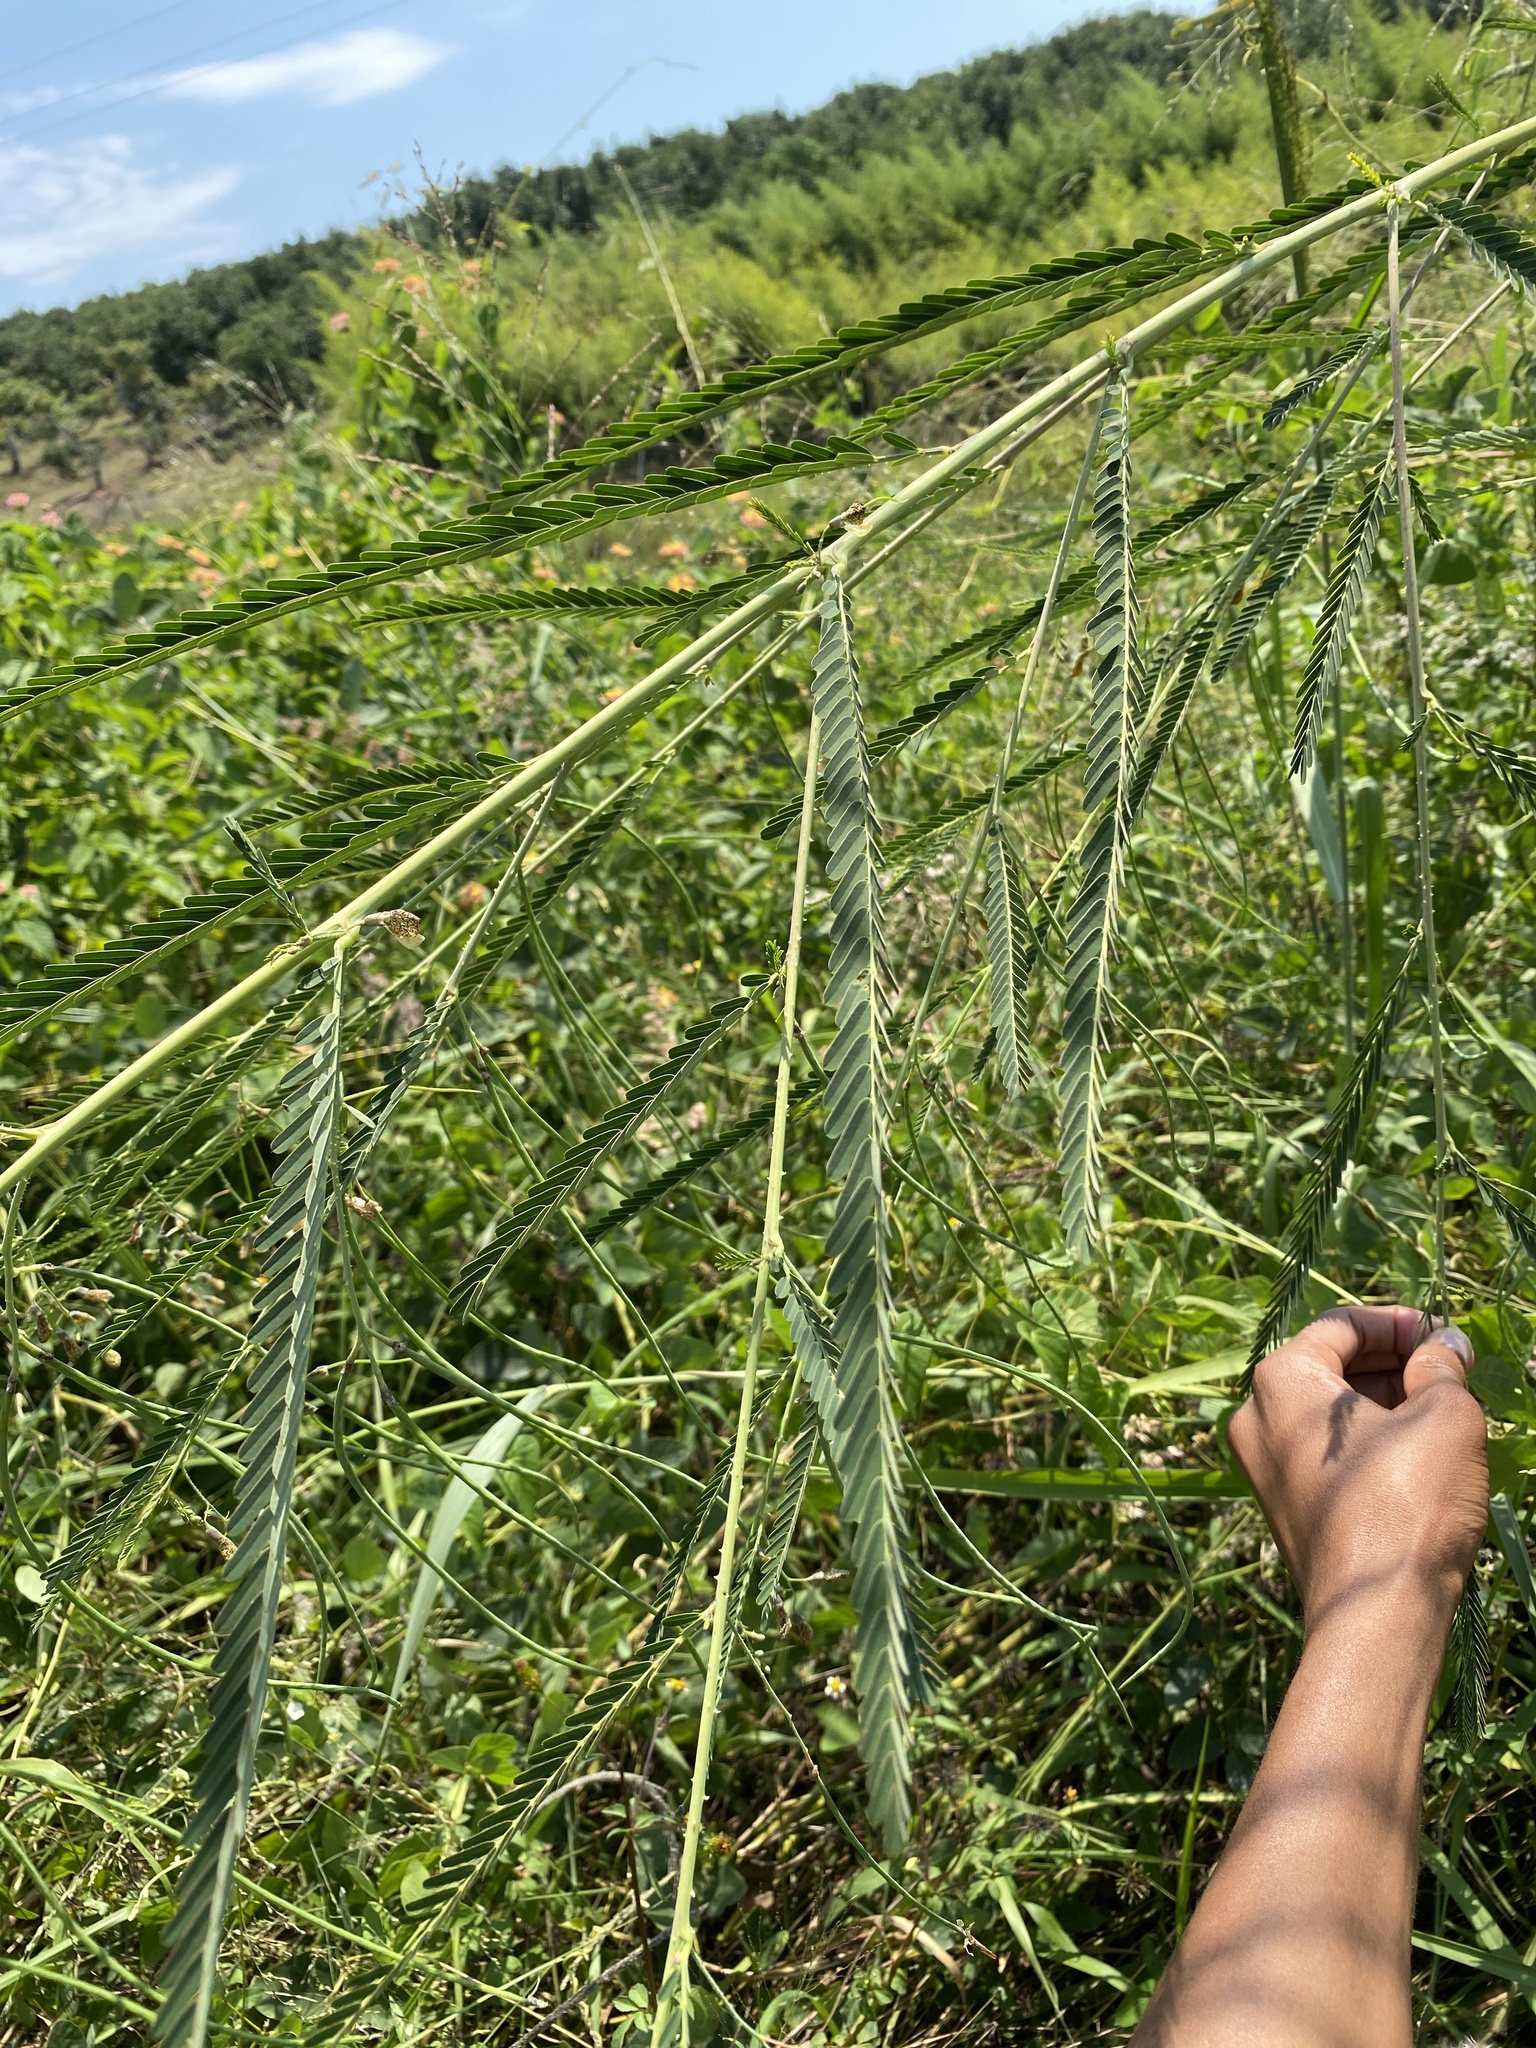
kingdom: Plantae
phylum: Tracheophyta
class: Magnoliopsida
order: Fabales
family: Fabaceae
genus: Sesbania
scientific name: Sesbania bispinosa
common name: Sesbania pea
